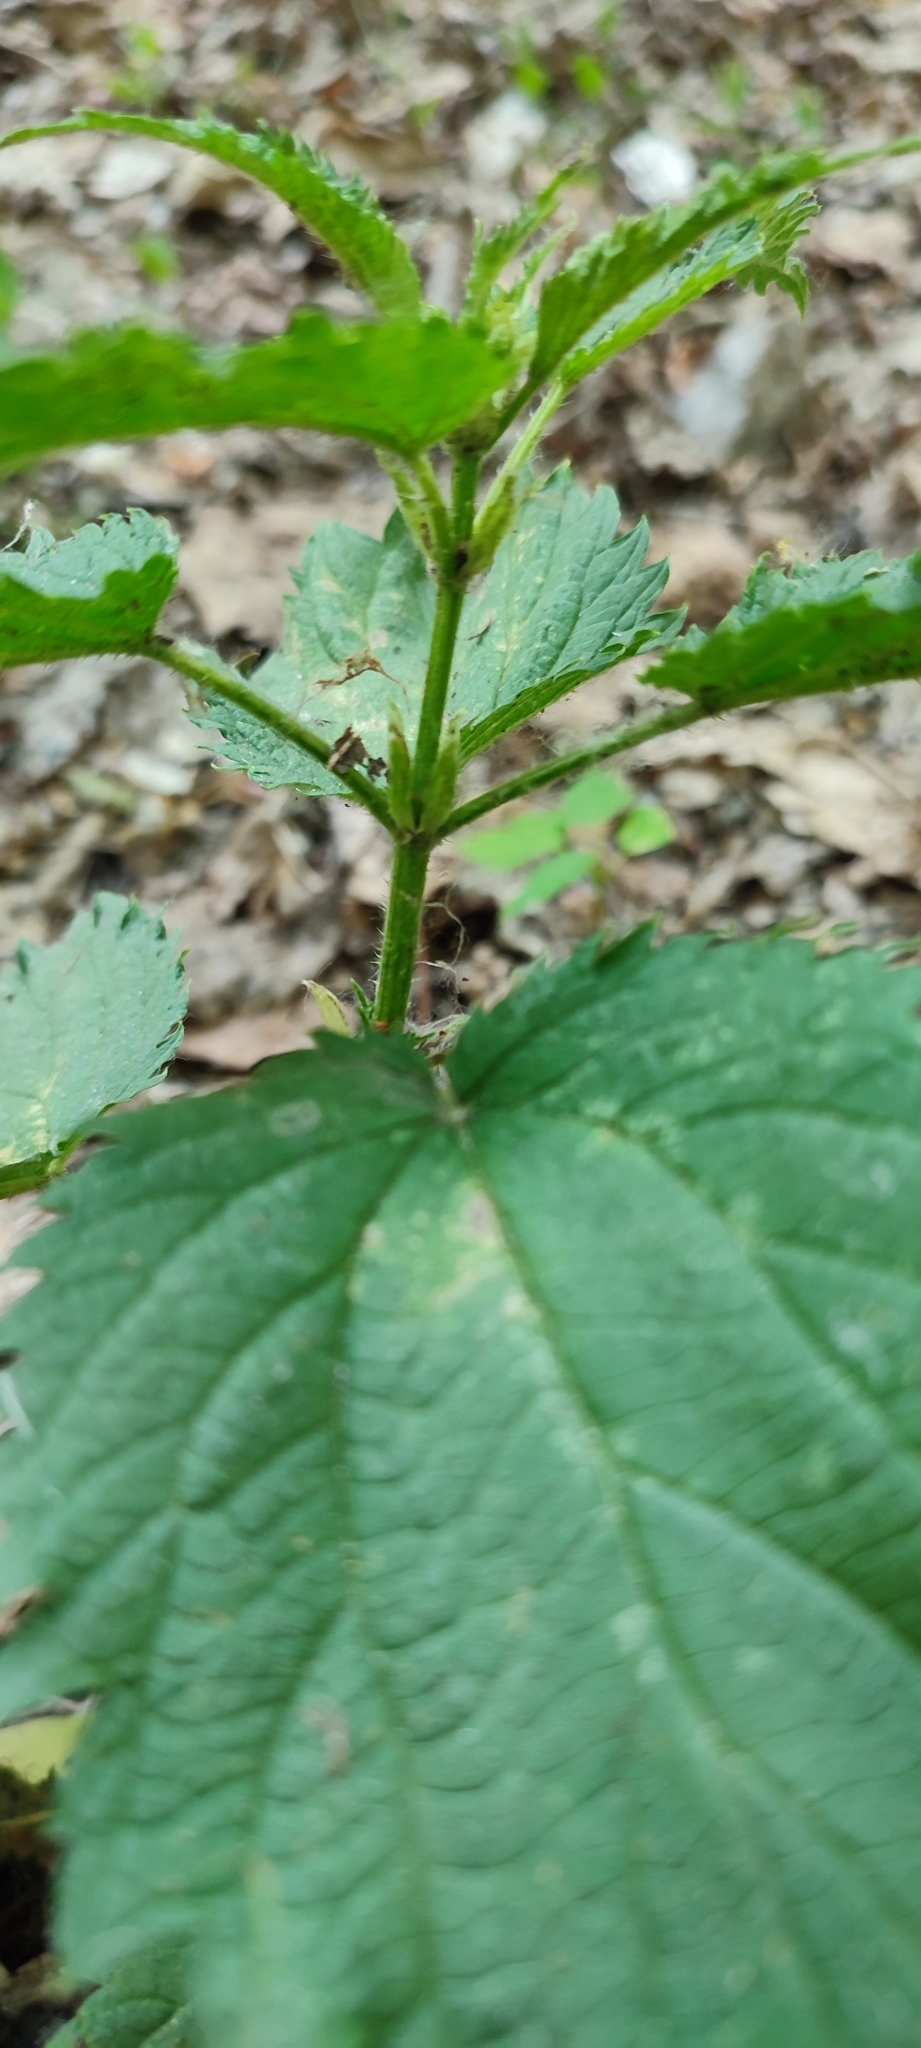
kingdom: Plantae
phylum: Tracheophyta
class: Magnoliopsida
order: Rosales
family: Urticaceae
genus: Urtica
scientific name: Urtica dioica
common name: Common nettle
